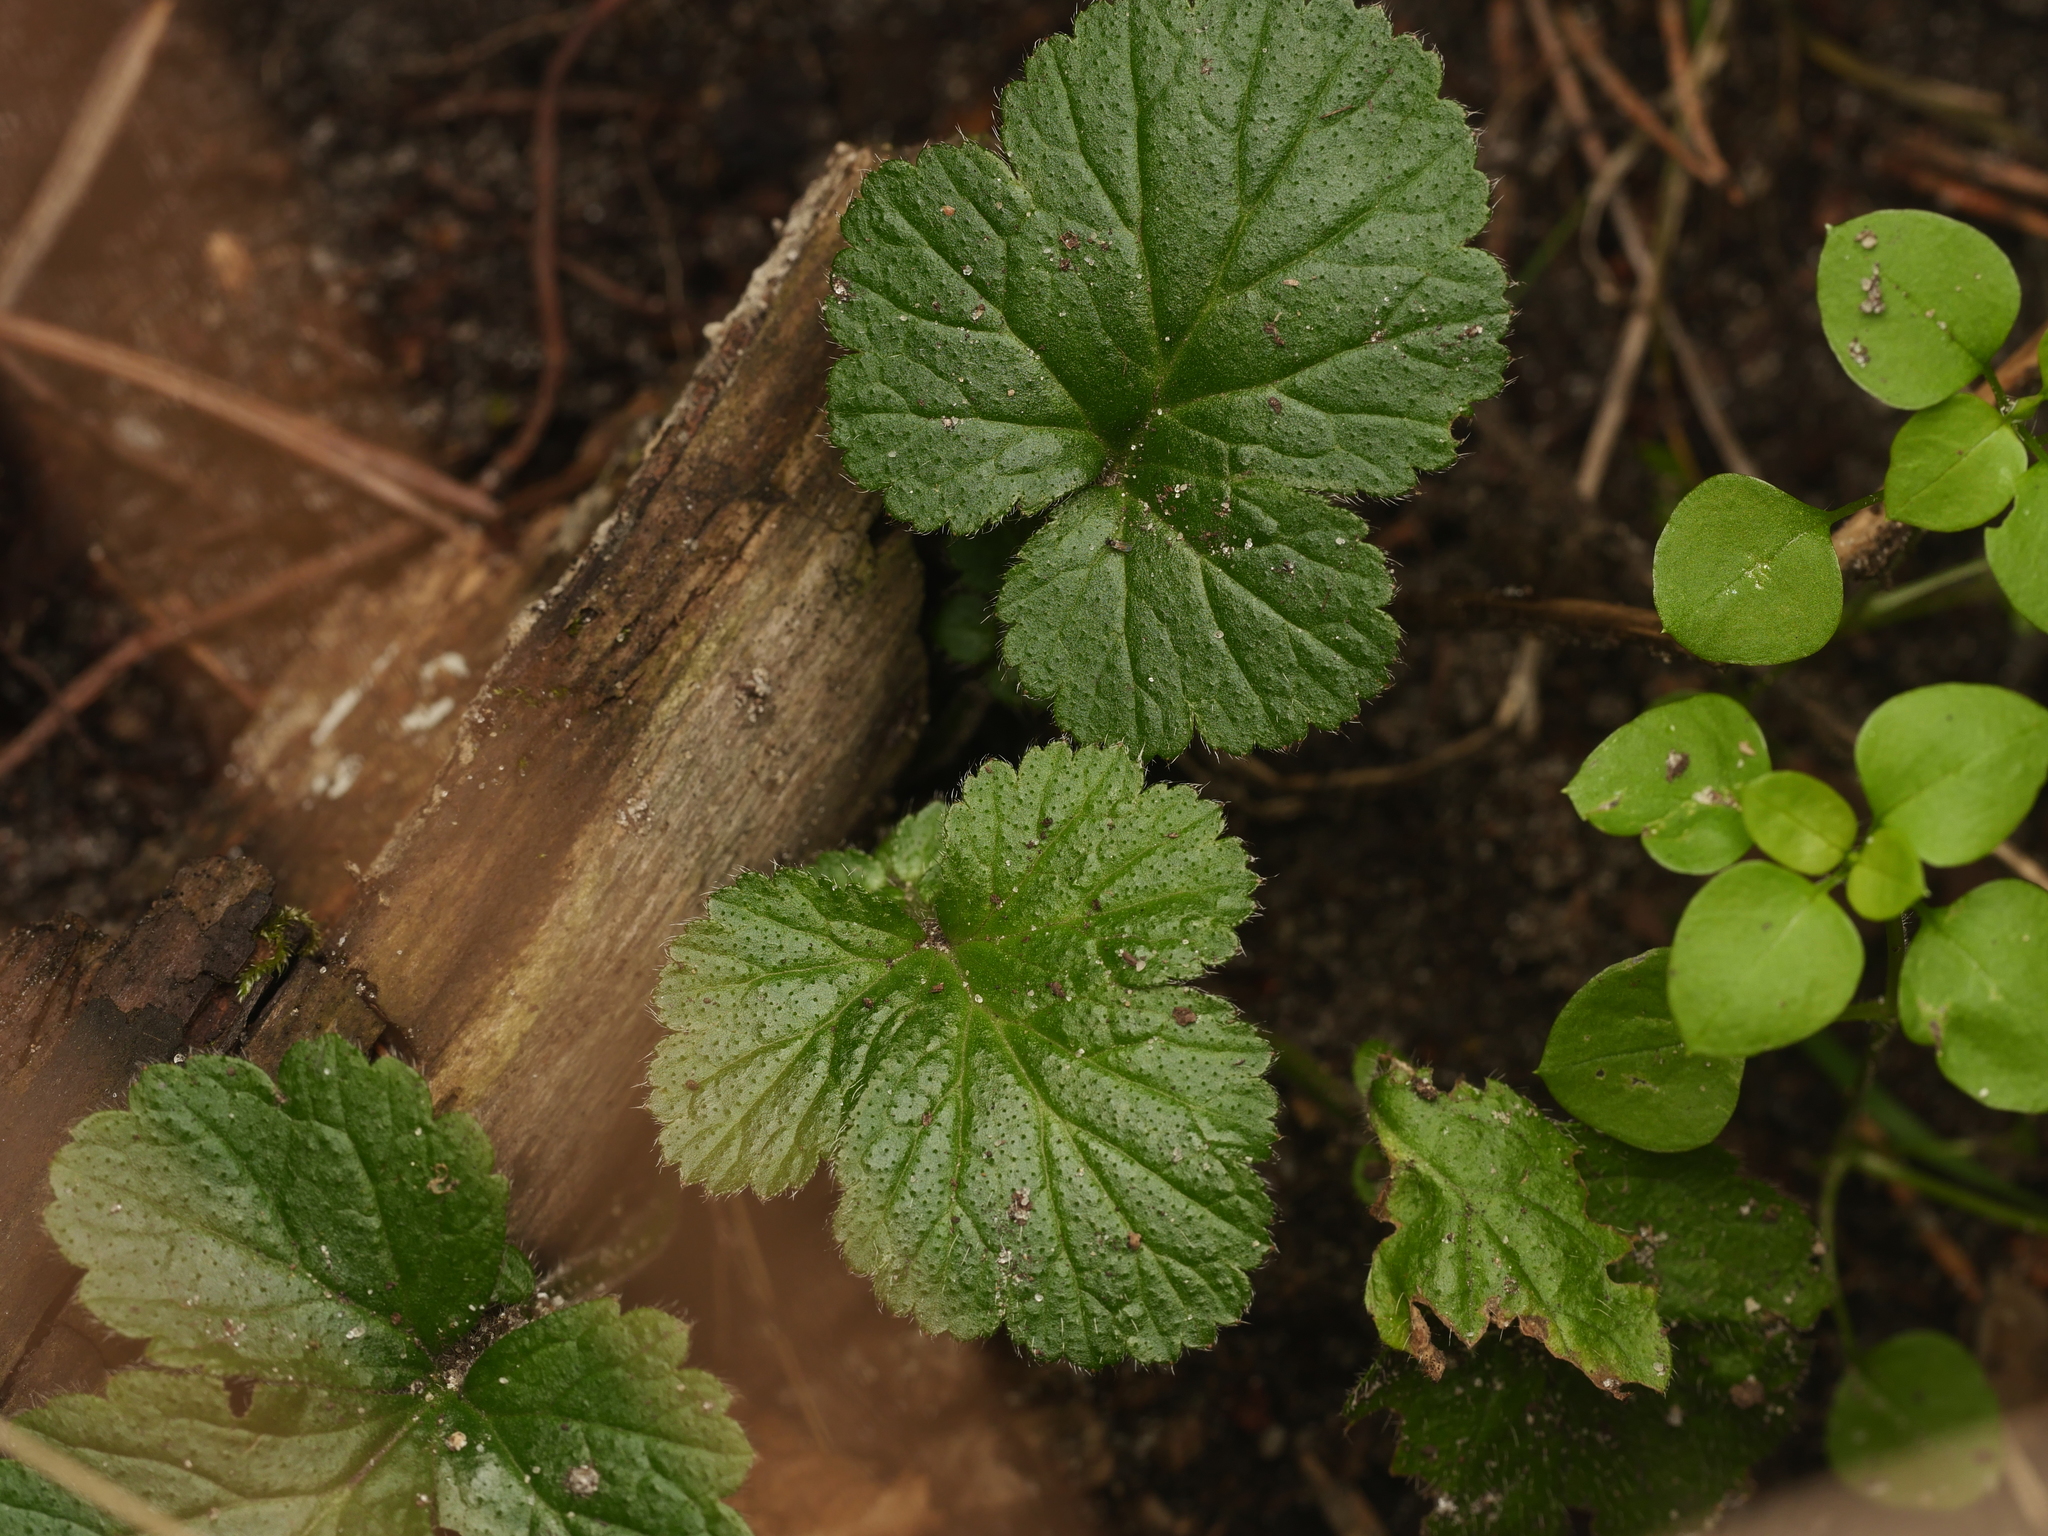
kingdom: Plantae
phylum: Tracheophyta
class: Magnoliopsida
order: Rosales
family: Rosaceae
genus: Geum
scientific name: Geum urbanum
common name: Wood avens
